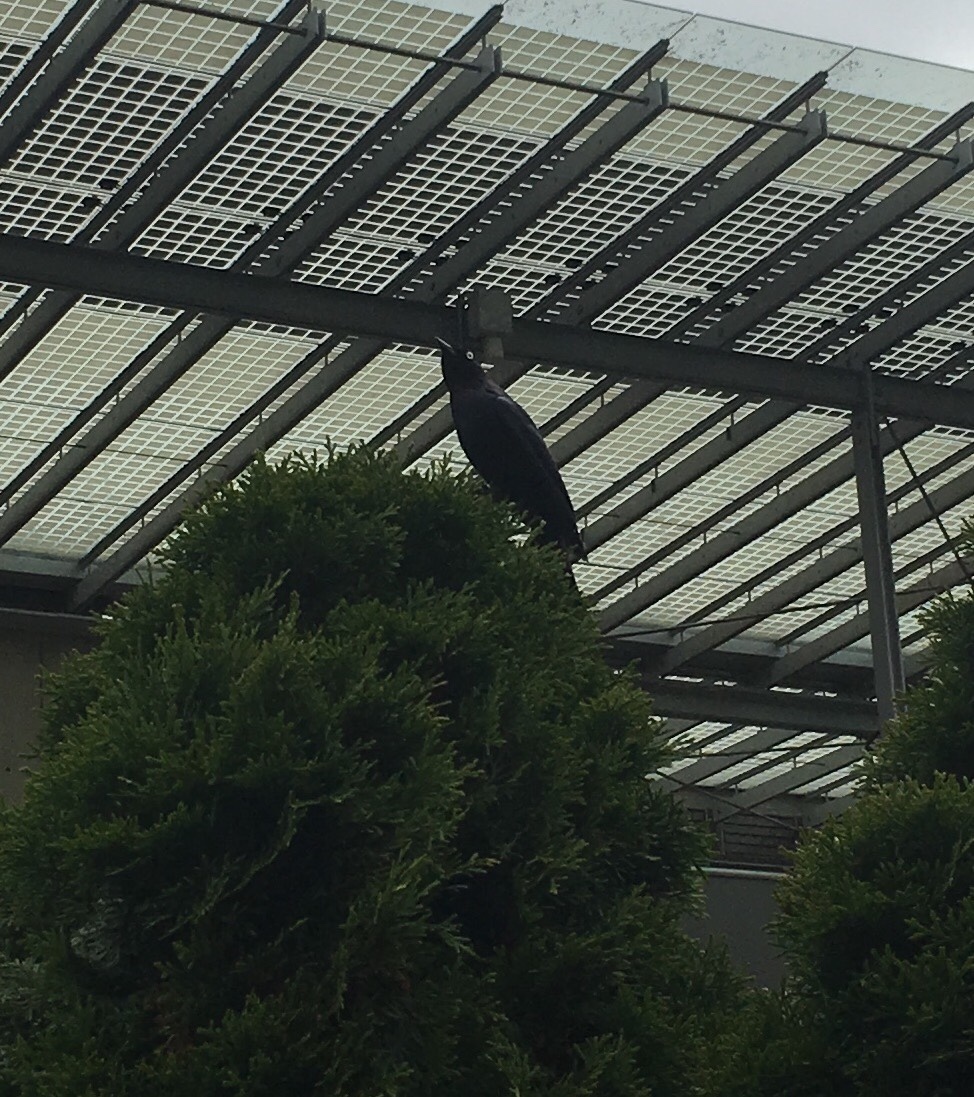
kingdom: Animalia
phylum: Chordata
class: Aves
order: Passeriformes
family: Icteridae
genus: Euphagus
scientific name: Euphagus cyanocephalus
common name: Brewer's blackbird
